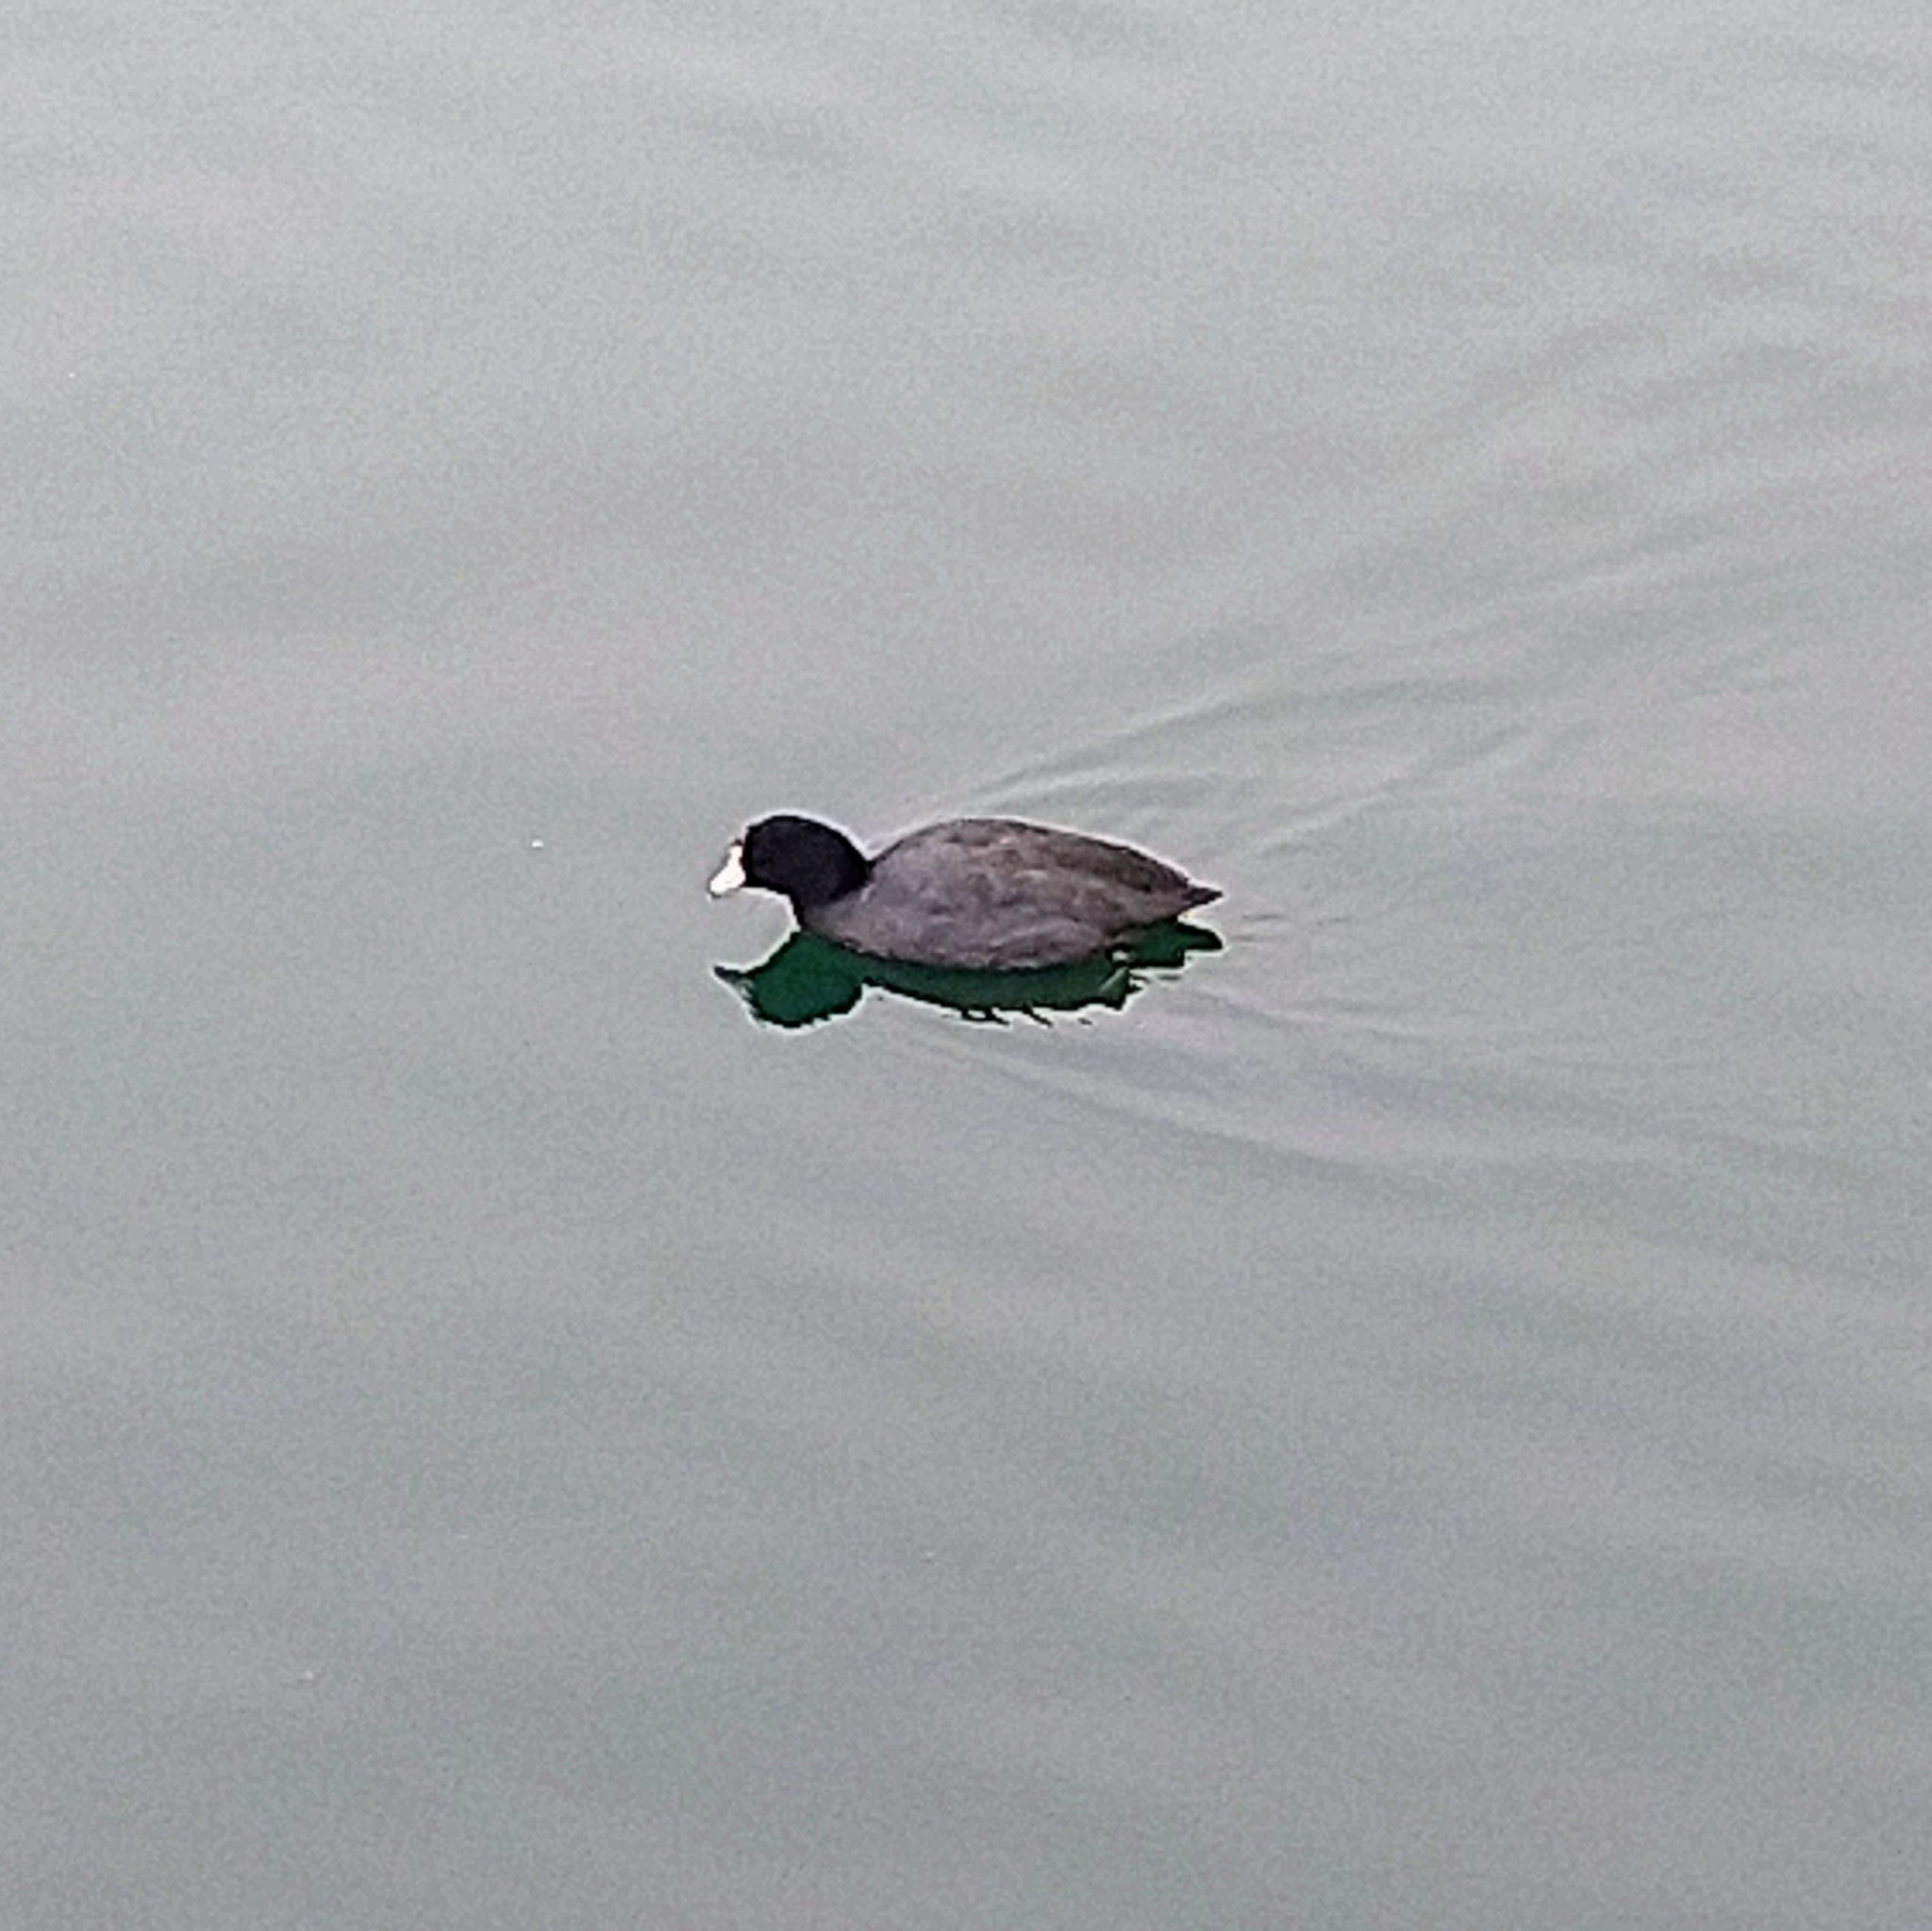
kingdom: Animalia
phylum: Chordata
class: Aves
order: Gruiformes
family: Rallidae
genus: Fulica
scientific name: Fulica americana
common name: American coot
